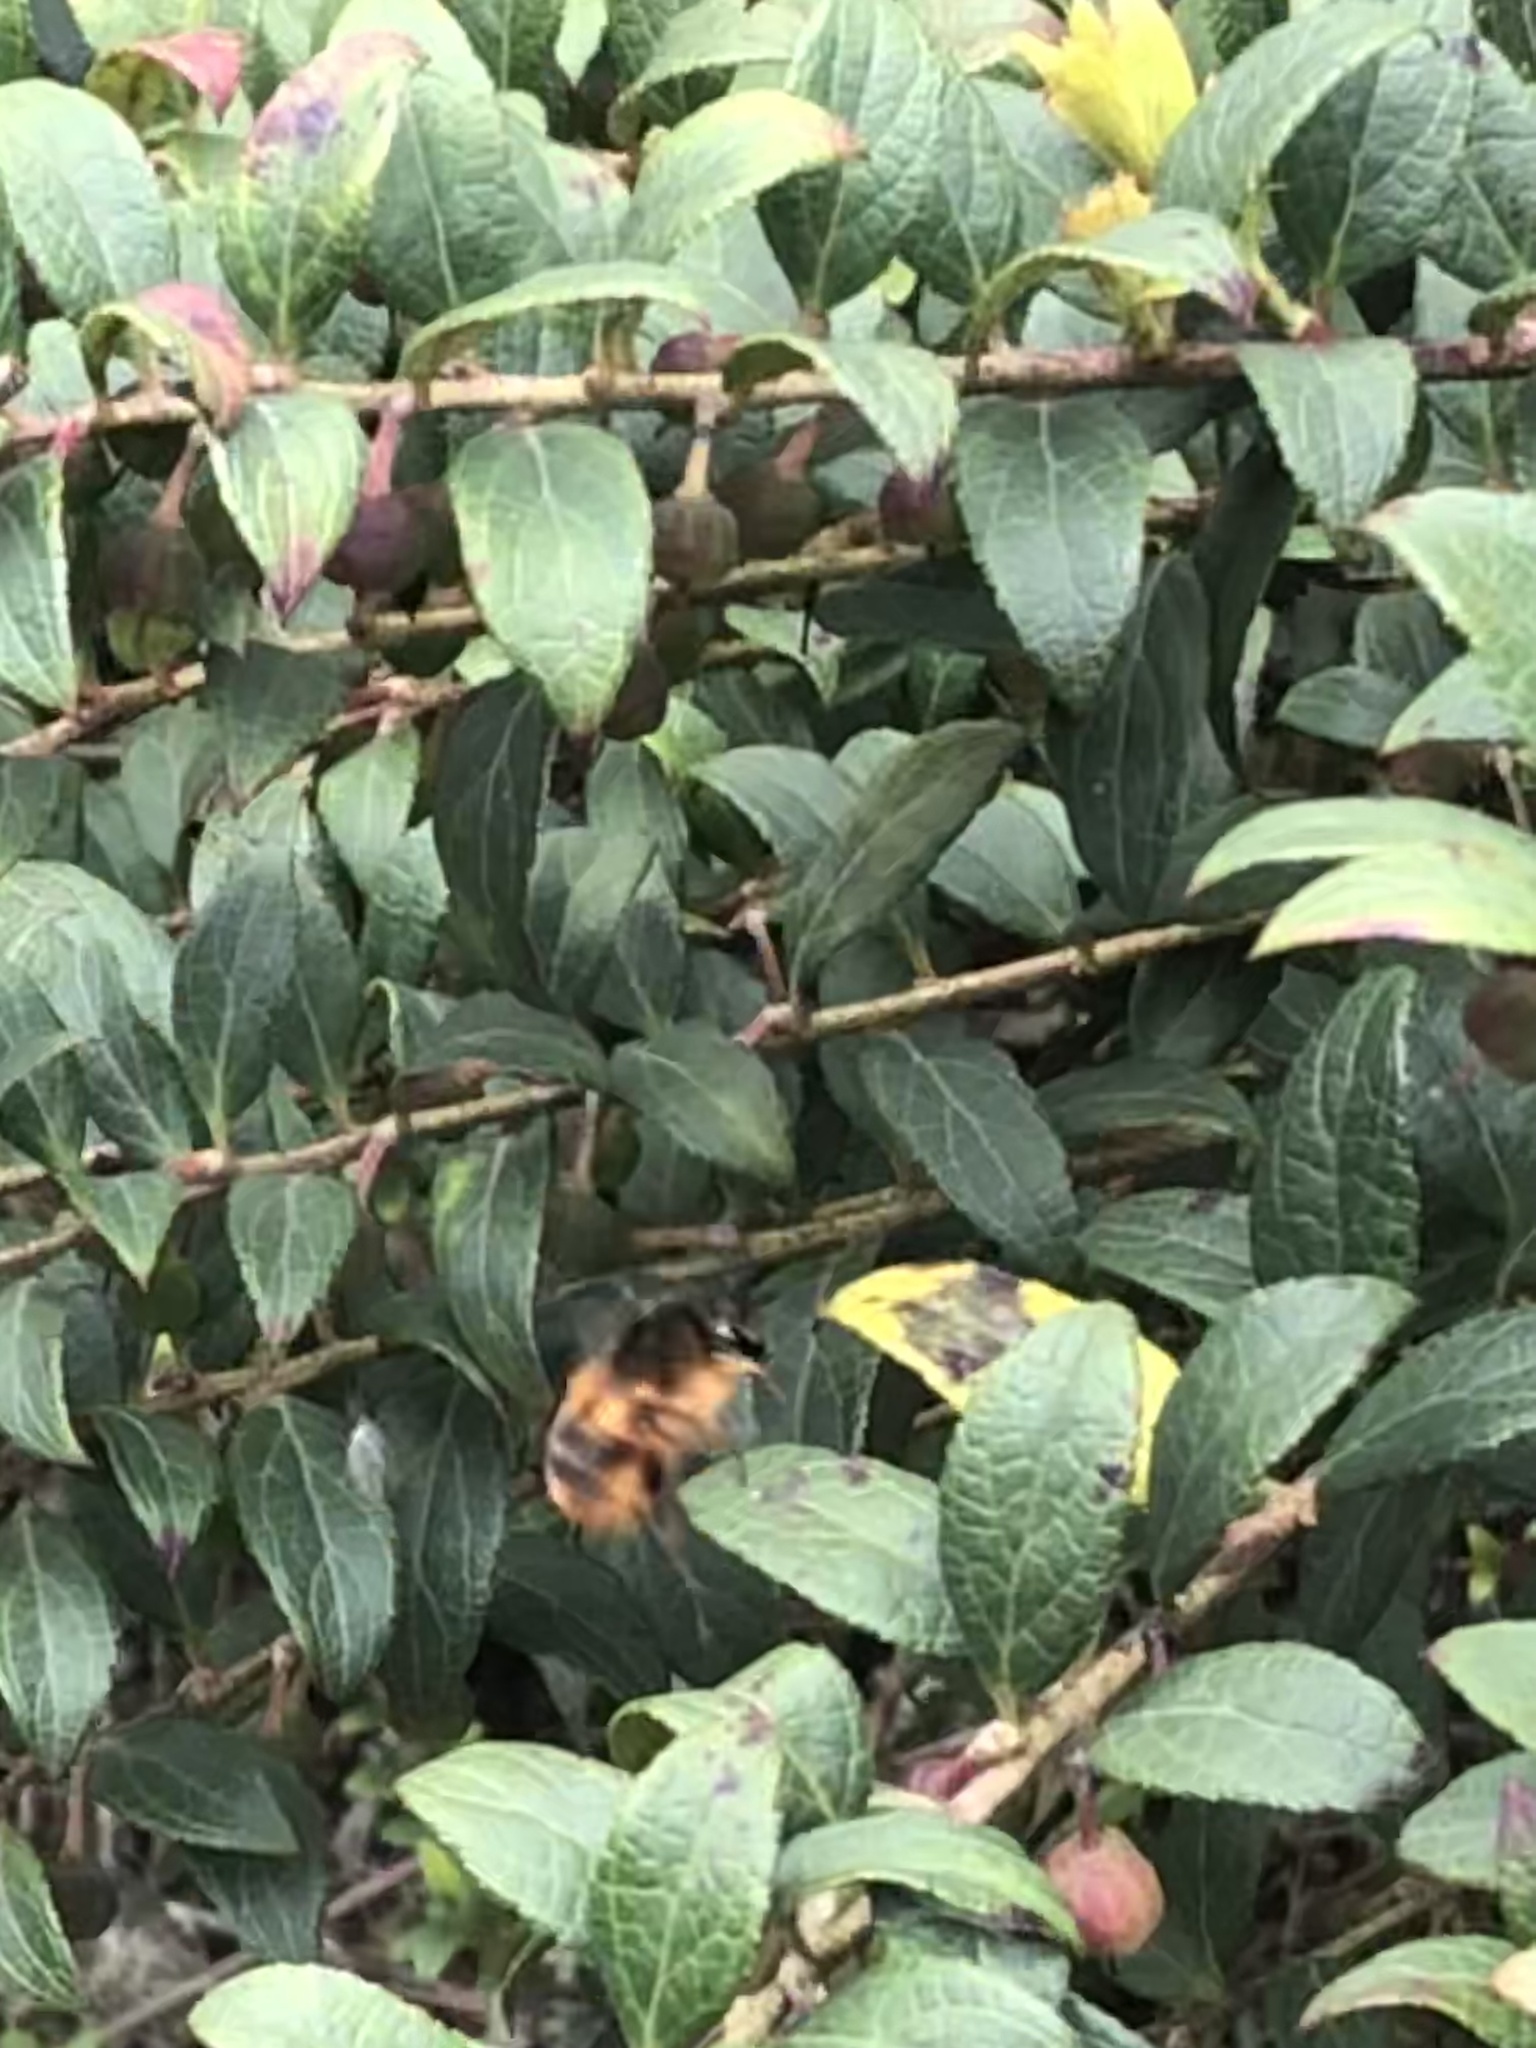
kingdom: Animalia
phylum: Arthropoda
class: Insecta
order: Hymenoptera
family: Apidae
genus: Bombus
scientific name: Bombus handlirschi
